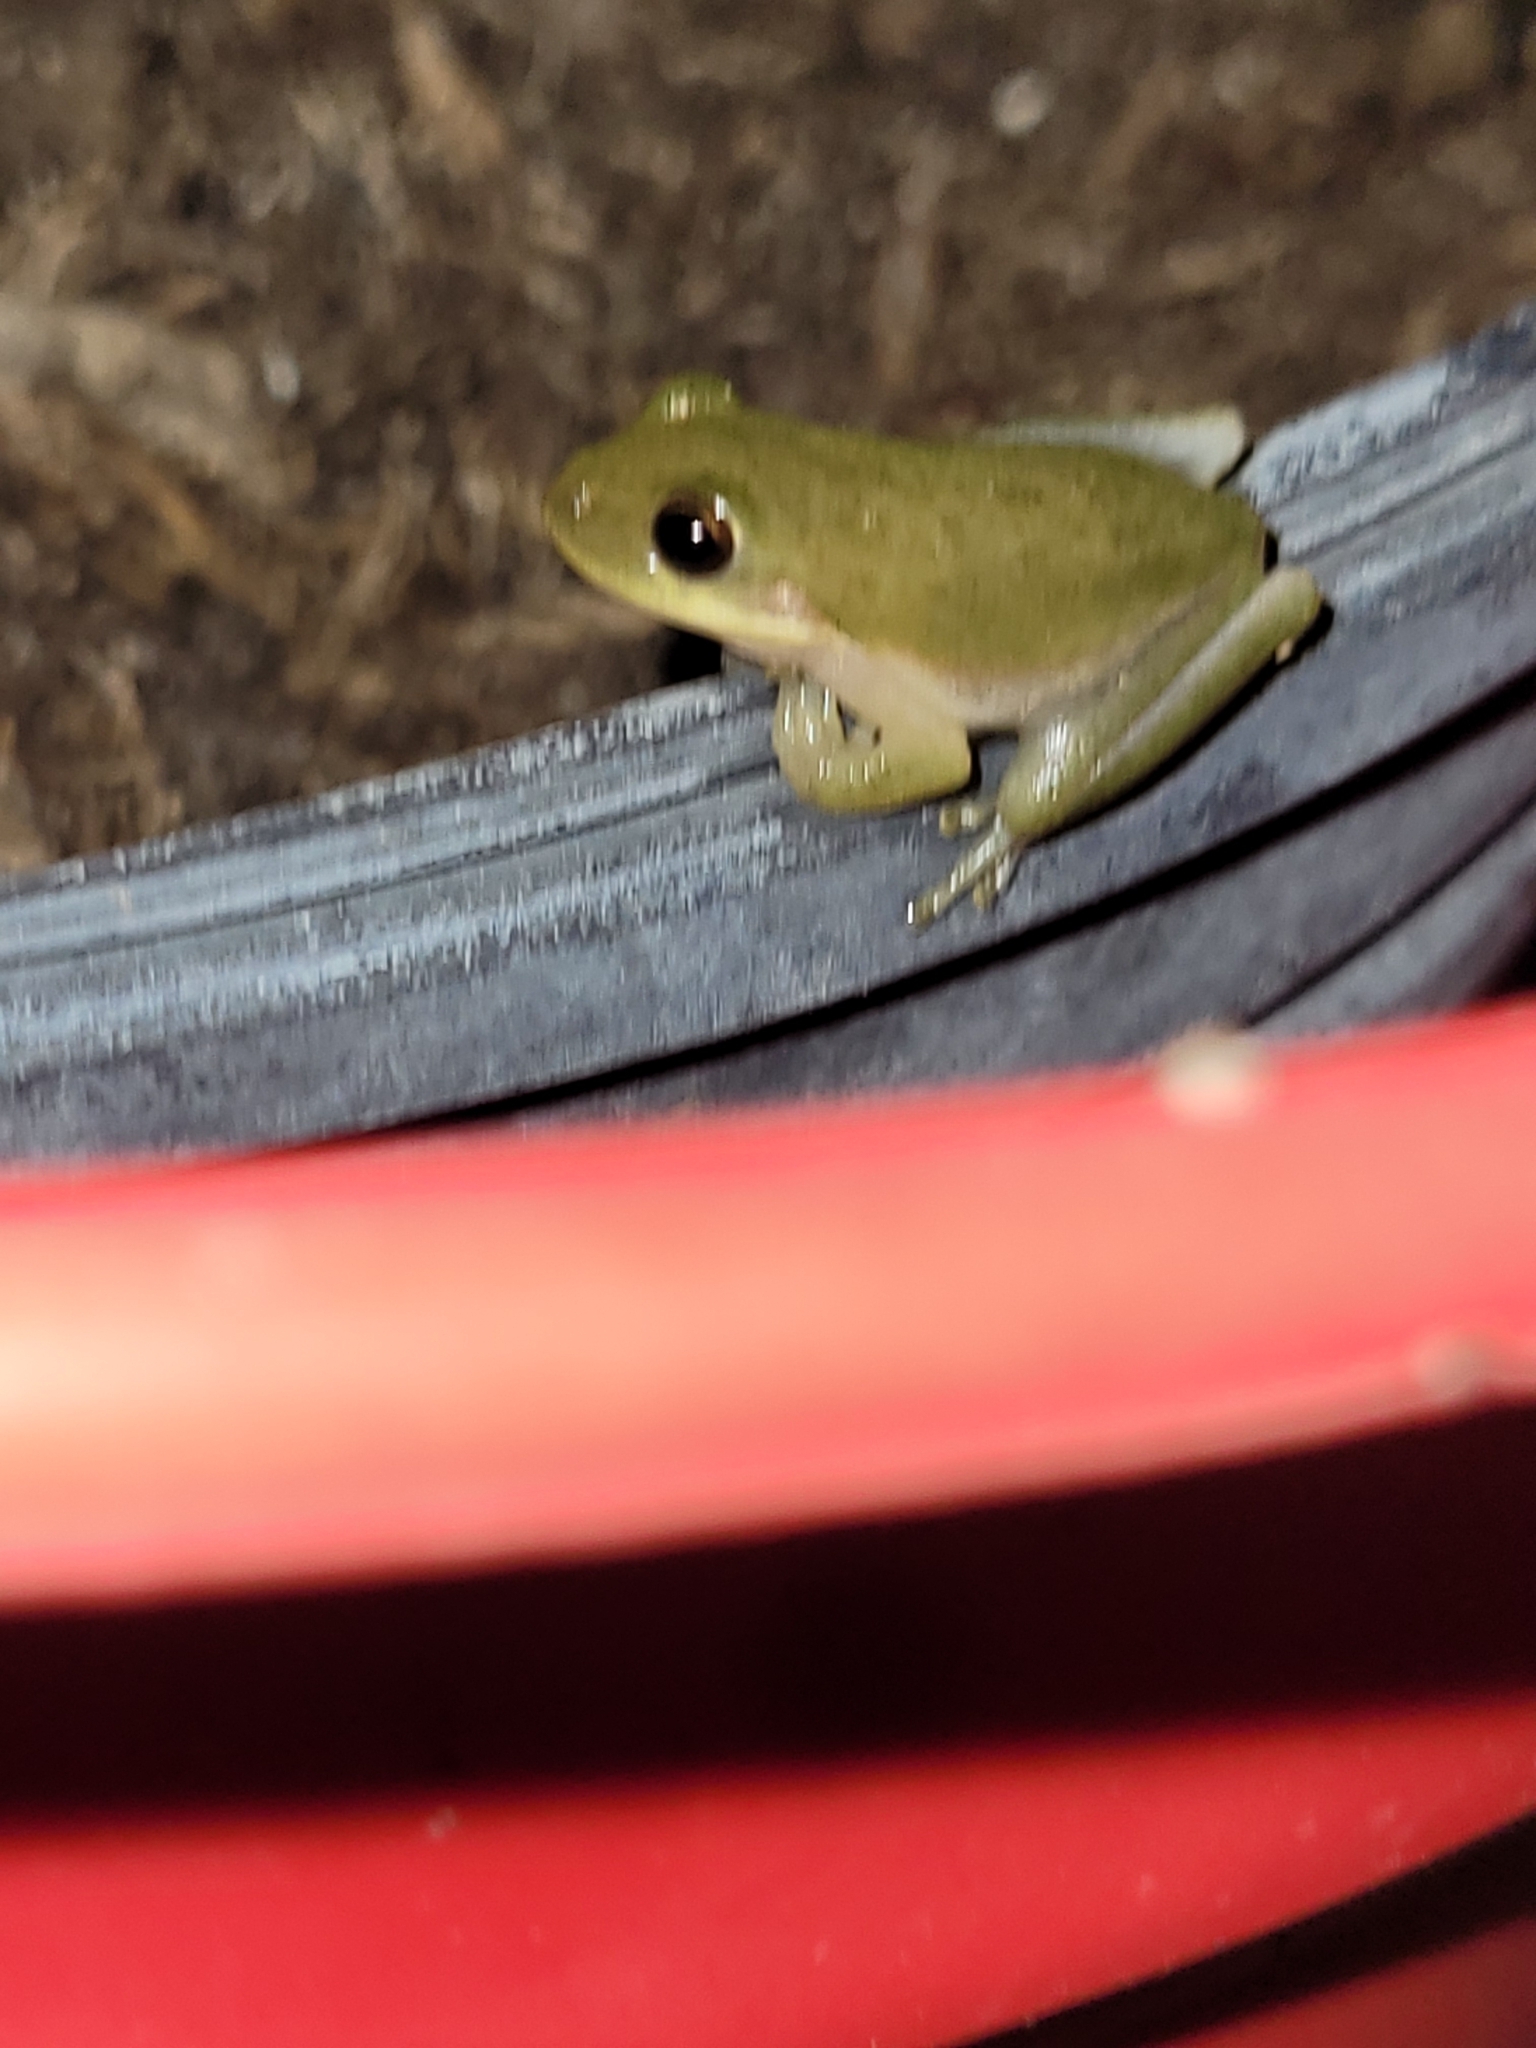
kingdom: Animalia
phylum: Chordata
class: Amphibia
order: Anura
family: Hylidae
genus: Dryophytes
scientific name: Dryophytes squirellus
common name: Squirrel treefrog
